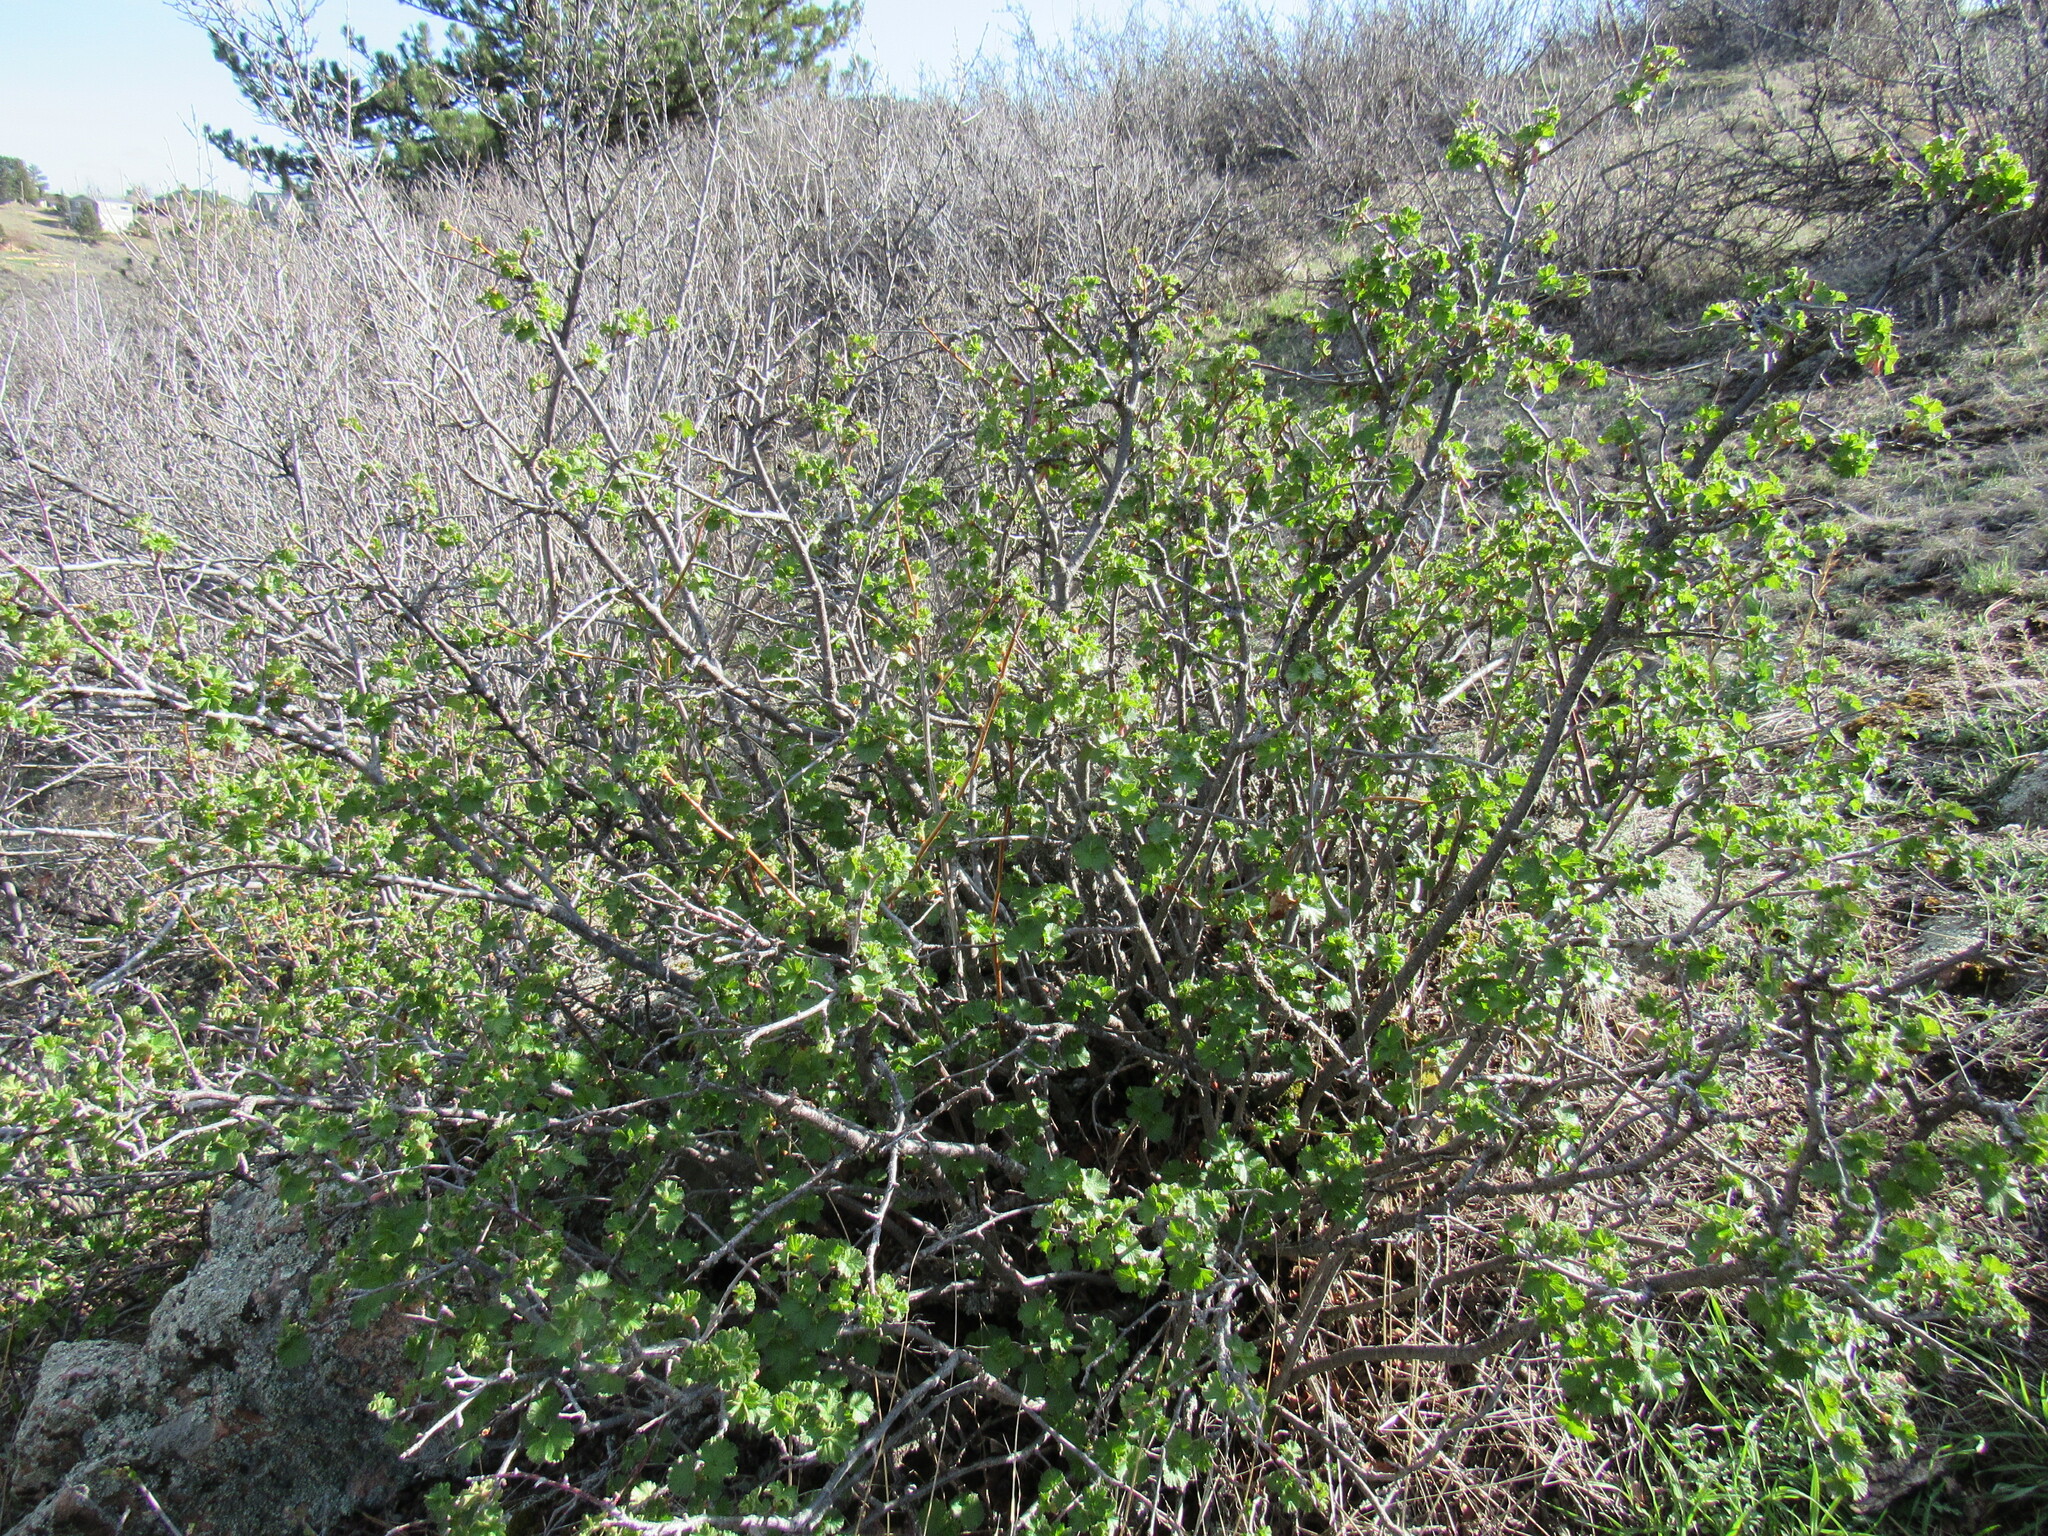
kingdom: Plantae
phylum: Tracheophyta
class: Magnoliopsida
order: Saxifragales
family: Grossulariaceae
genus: Ribes
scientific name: Ribes cereum
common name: Wax currant
